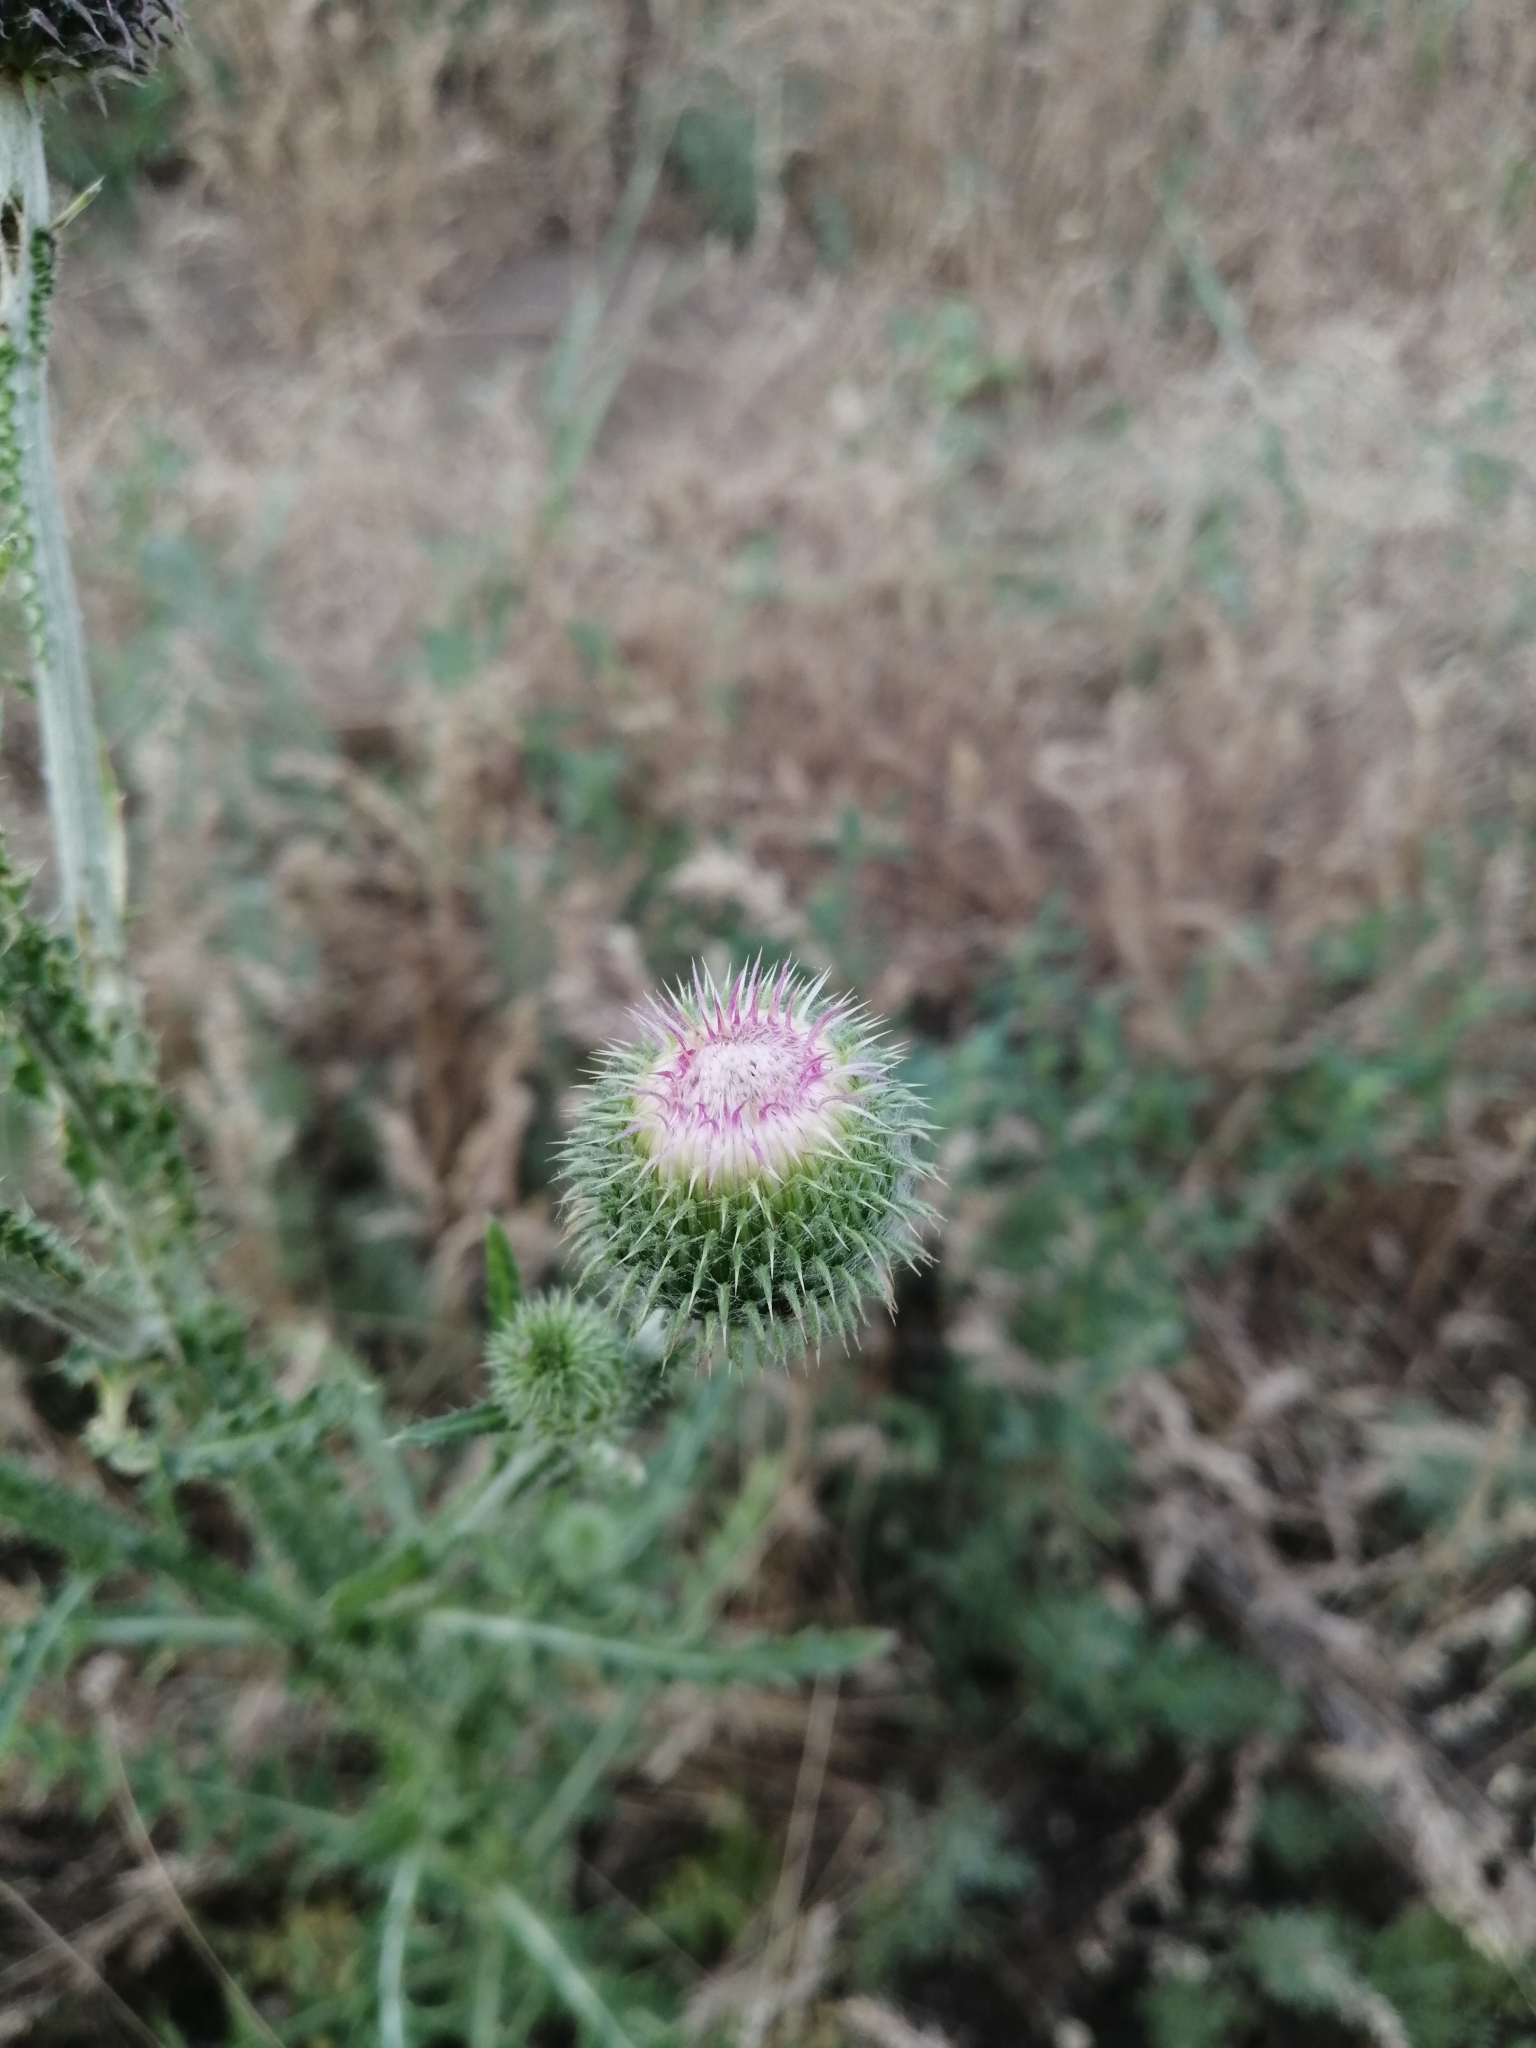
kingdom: Plantae
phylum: Tracheophyta
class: Magnoliopsida
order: Asterales
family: Asteraceae
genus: Carduus
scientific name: Carduus uncinatus
